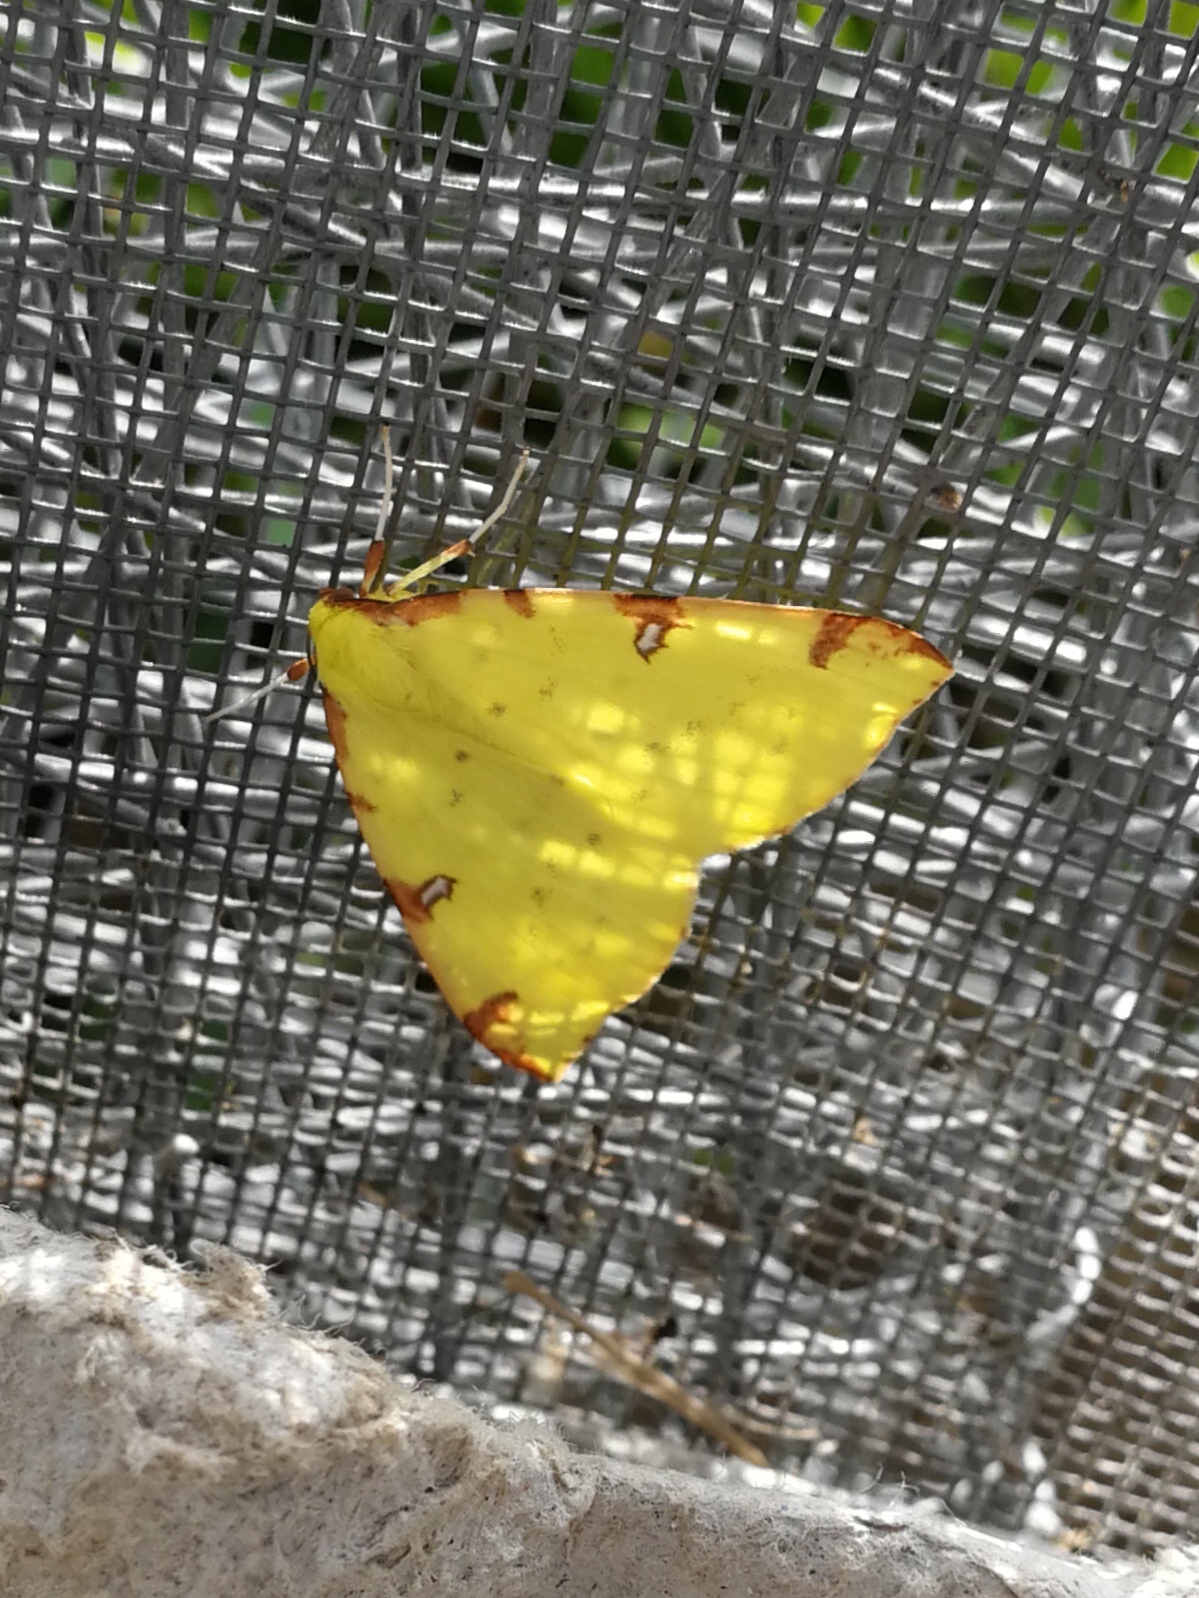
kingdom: Animalia
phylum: Arthropoda
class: Insecta
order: Lepidoptera
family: Geometridae
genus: Opisthograptis
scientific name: Opisthograptis luteolata
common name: Brimstone moth
